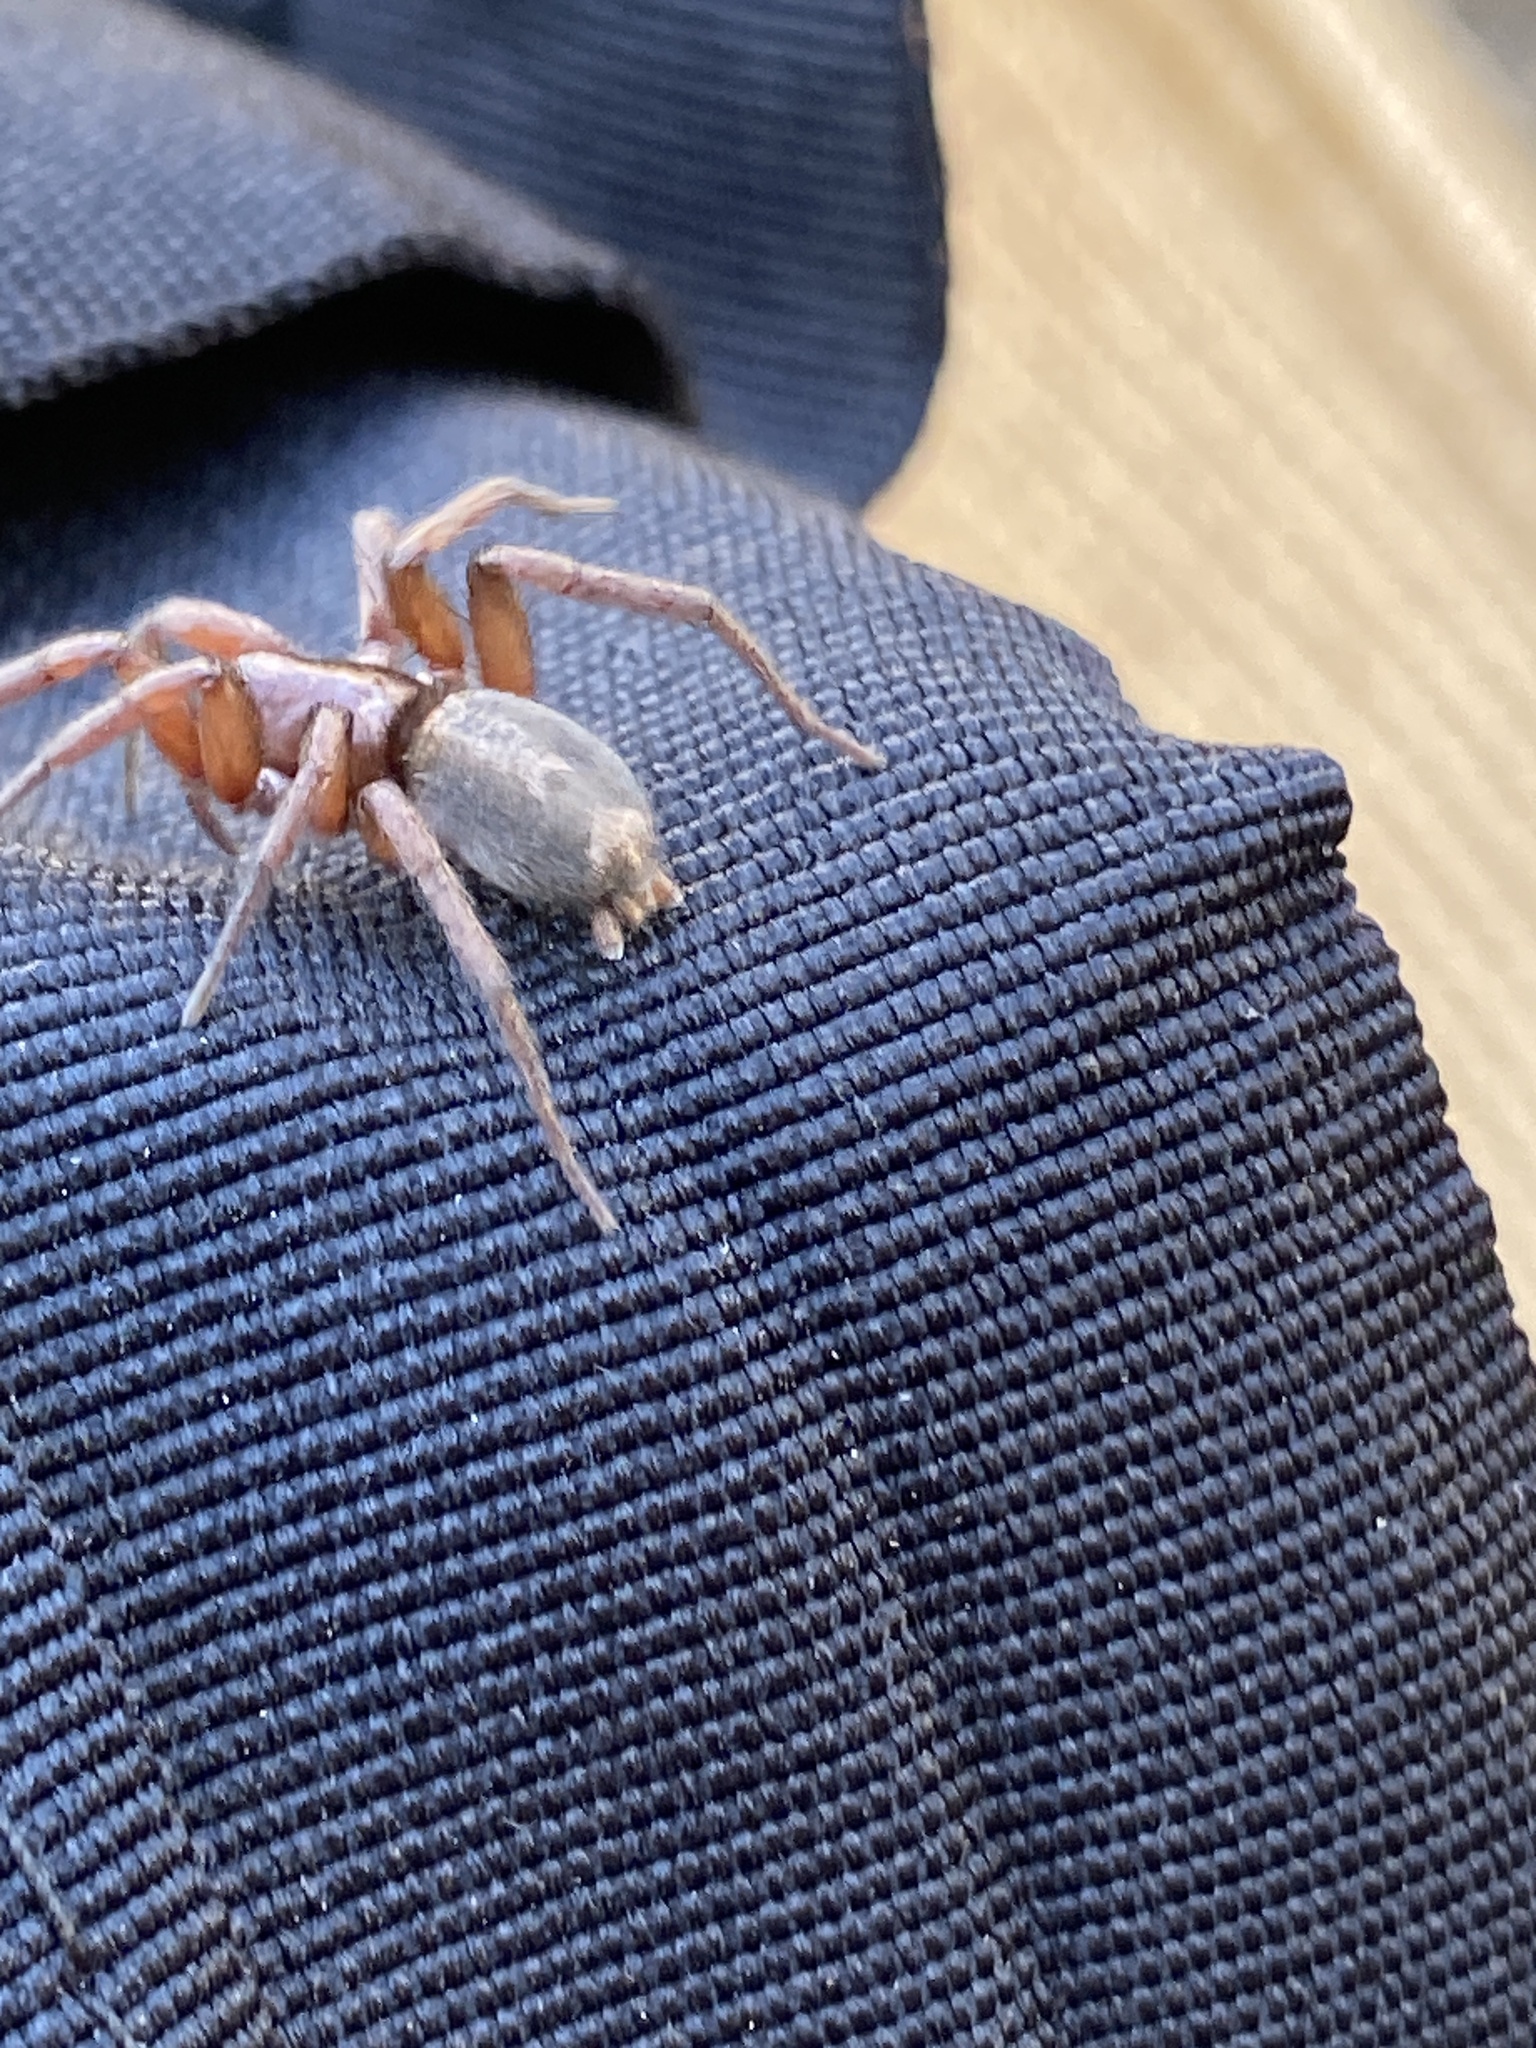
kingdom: Animalia
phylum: Arthropoda
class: Arachnida
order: Araneae
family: Gnaphosidae
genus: Herpyllus
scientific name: Herpyllus propinquus
